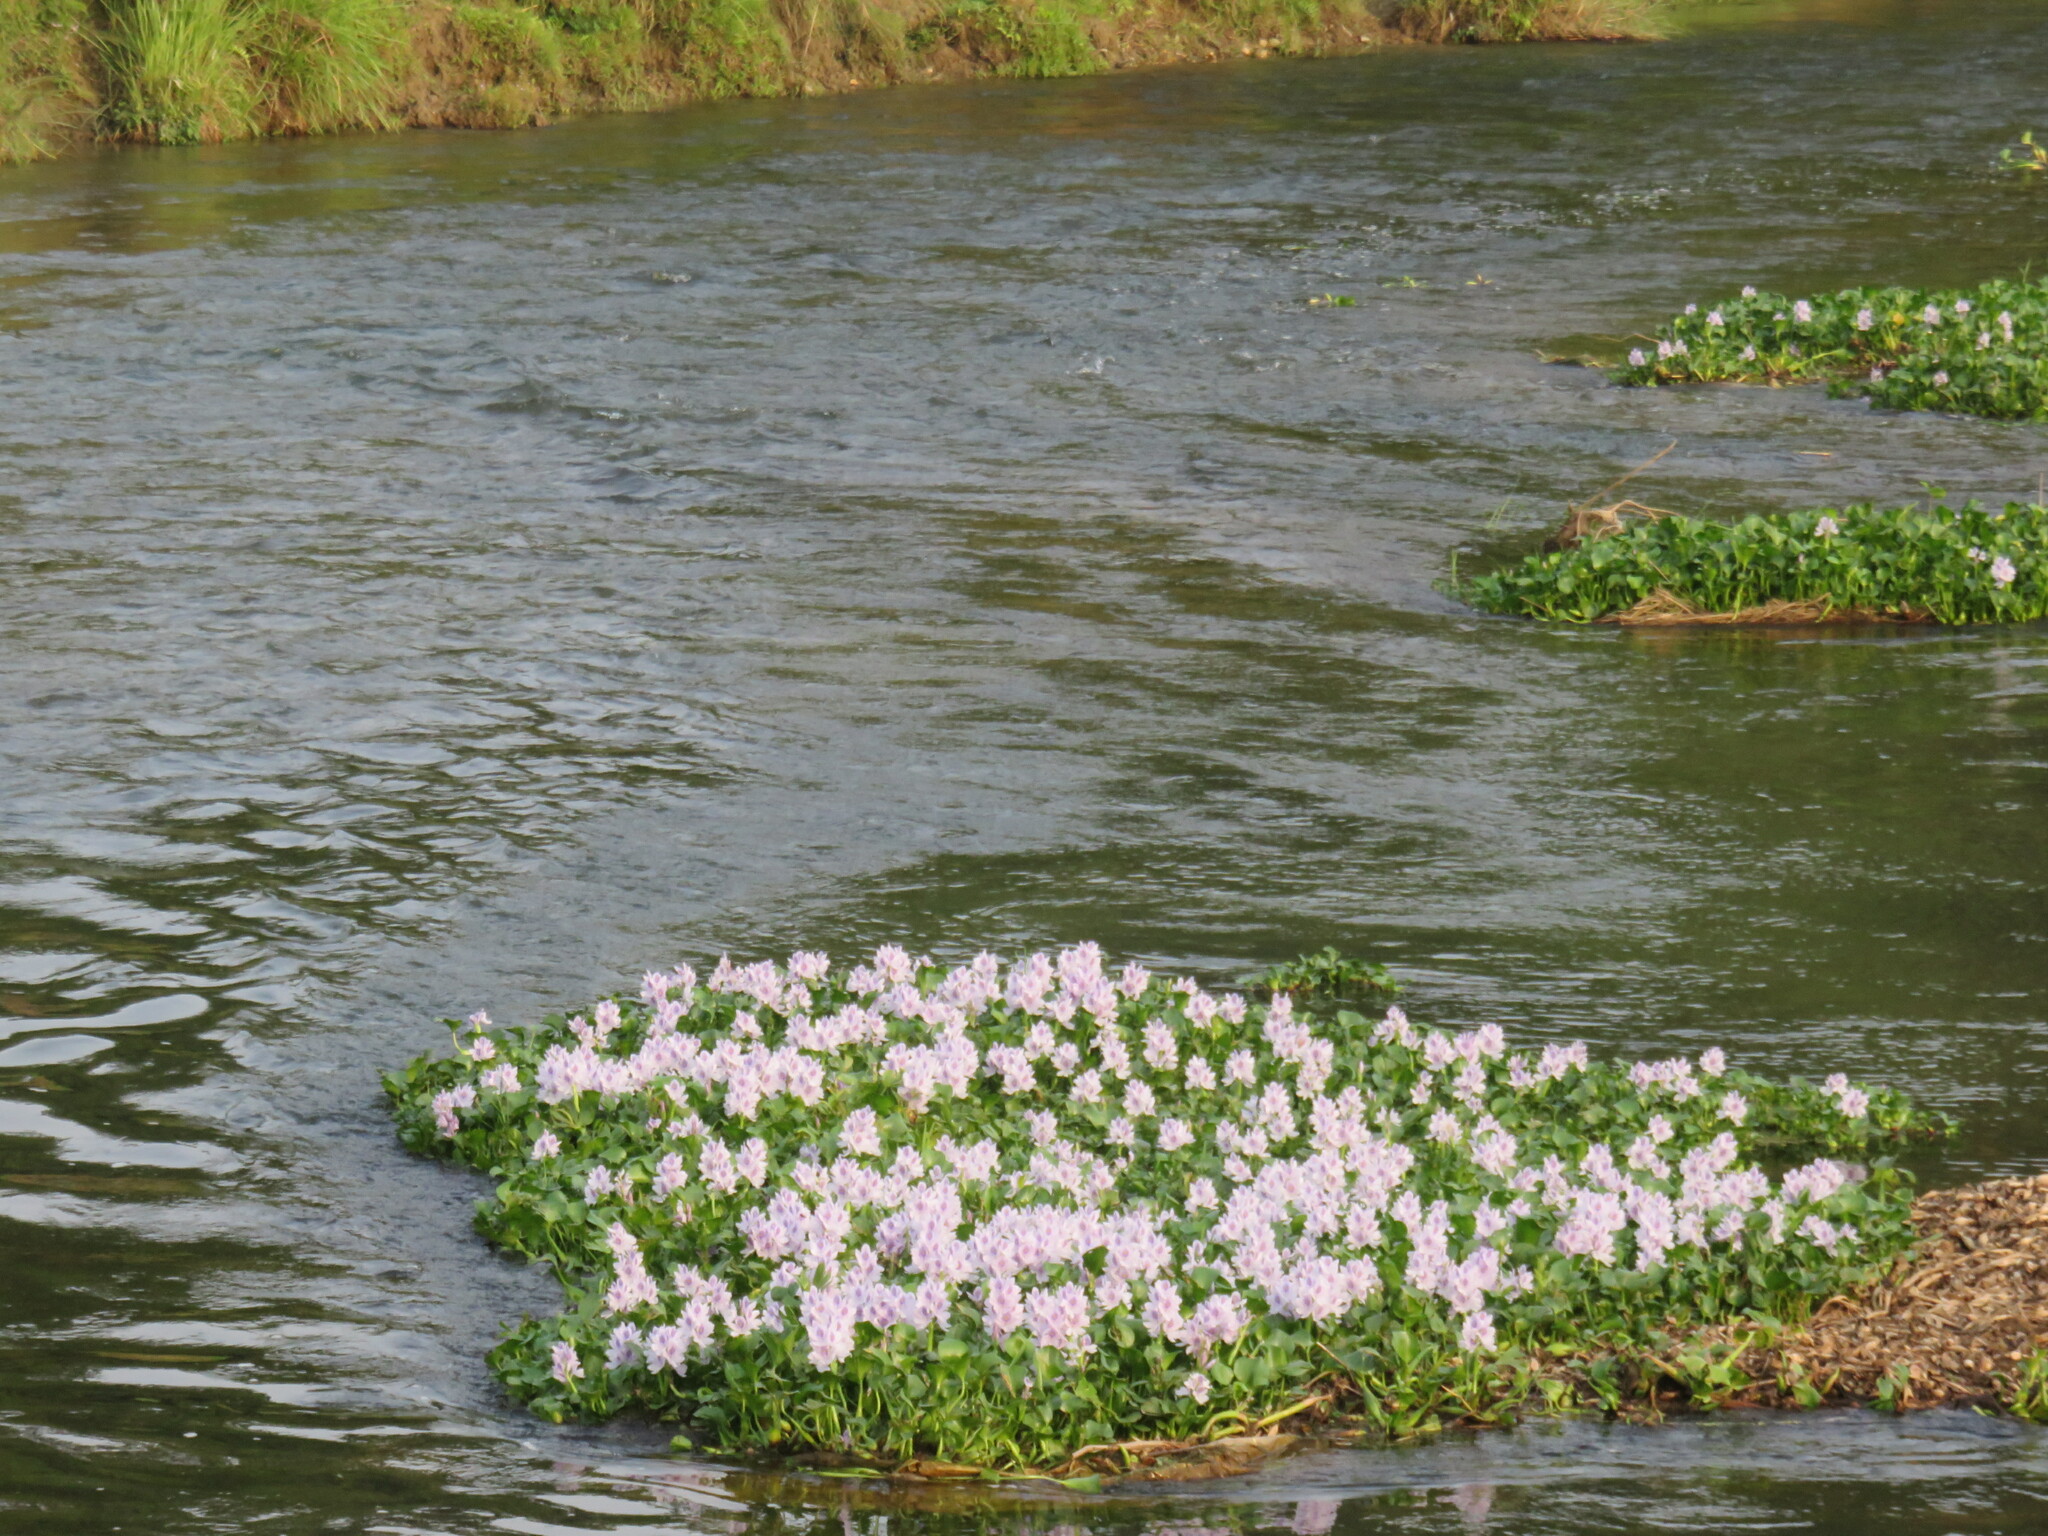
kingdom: Plantae
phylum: Tracheophyta
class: Liliopsida
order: Commelinales
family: Pontederiaceae
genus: Pontederia
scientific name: Pontederia crassipes
